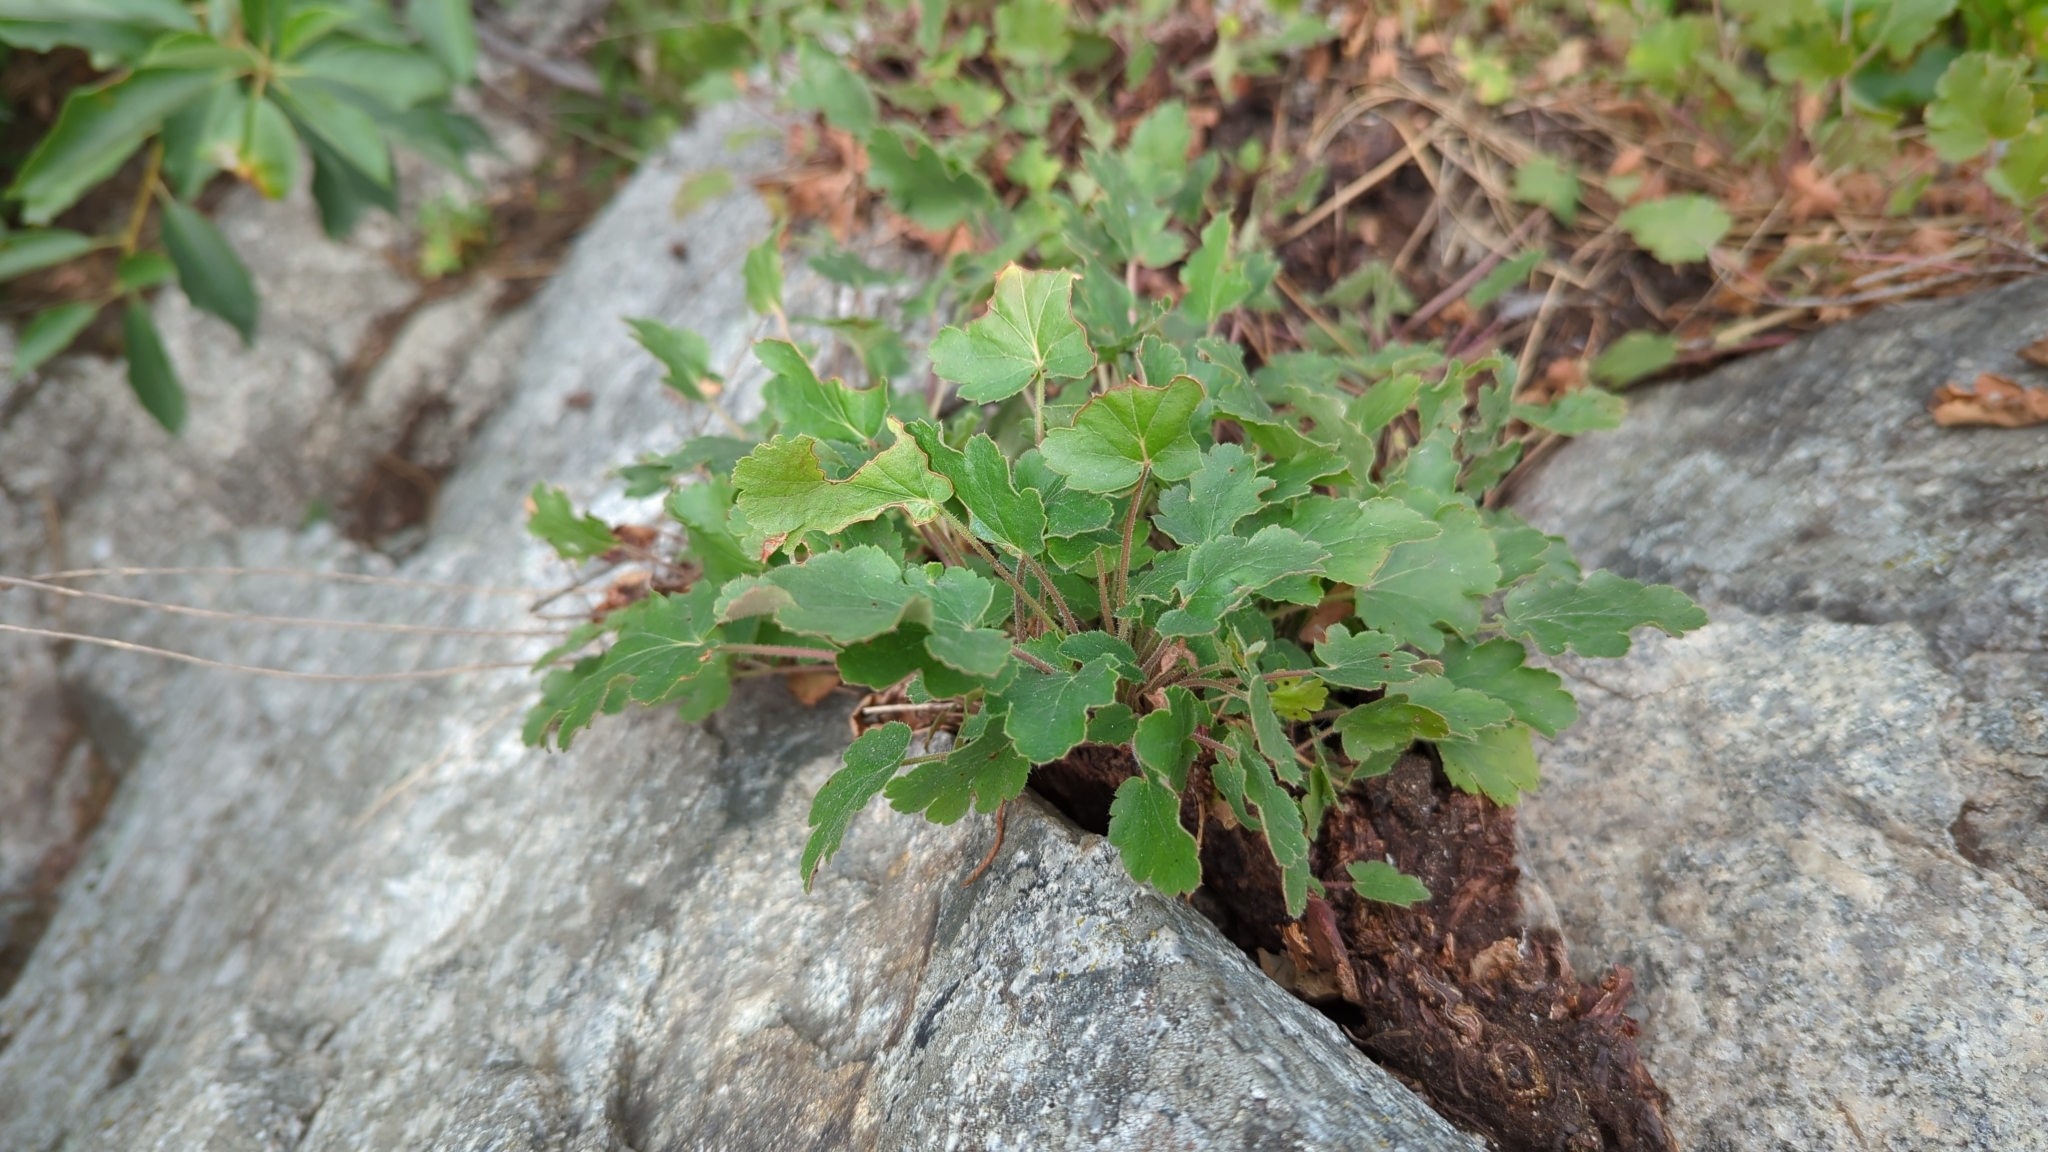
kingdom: Plantae
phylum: Tracheophyta
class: Magnoliopsida
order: Saxifragales
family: Saxifragaceae
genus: Heuchera
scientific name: Heuchera cylindrica
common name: Mat alumroot
